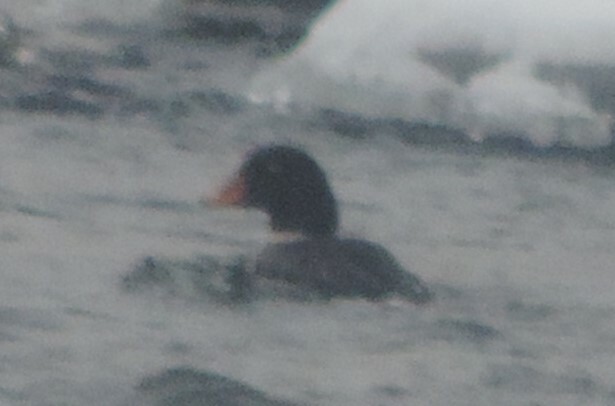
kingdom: Animalia
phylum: Chordata
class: Aves
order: Anseriformes
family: Anatidae
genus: Bucephala
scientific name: Bucephala islandica
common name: Barrow's goldeneye
